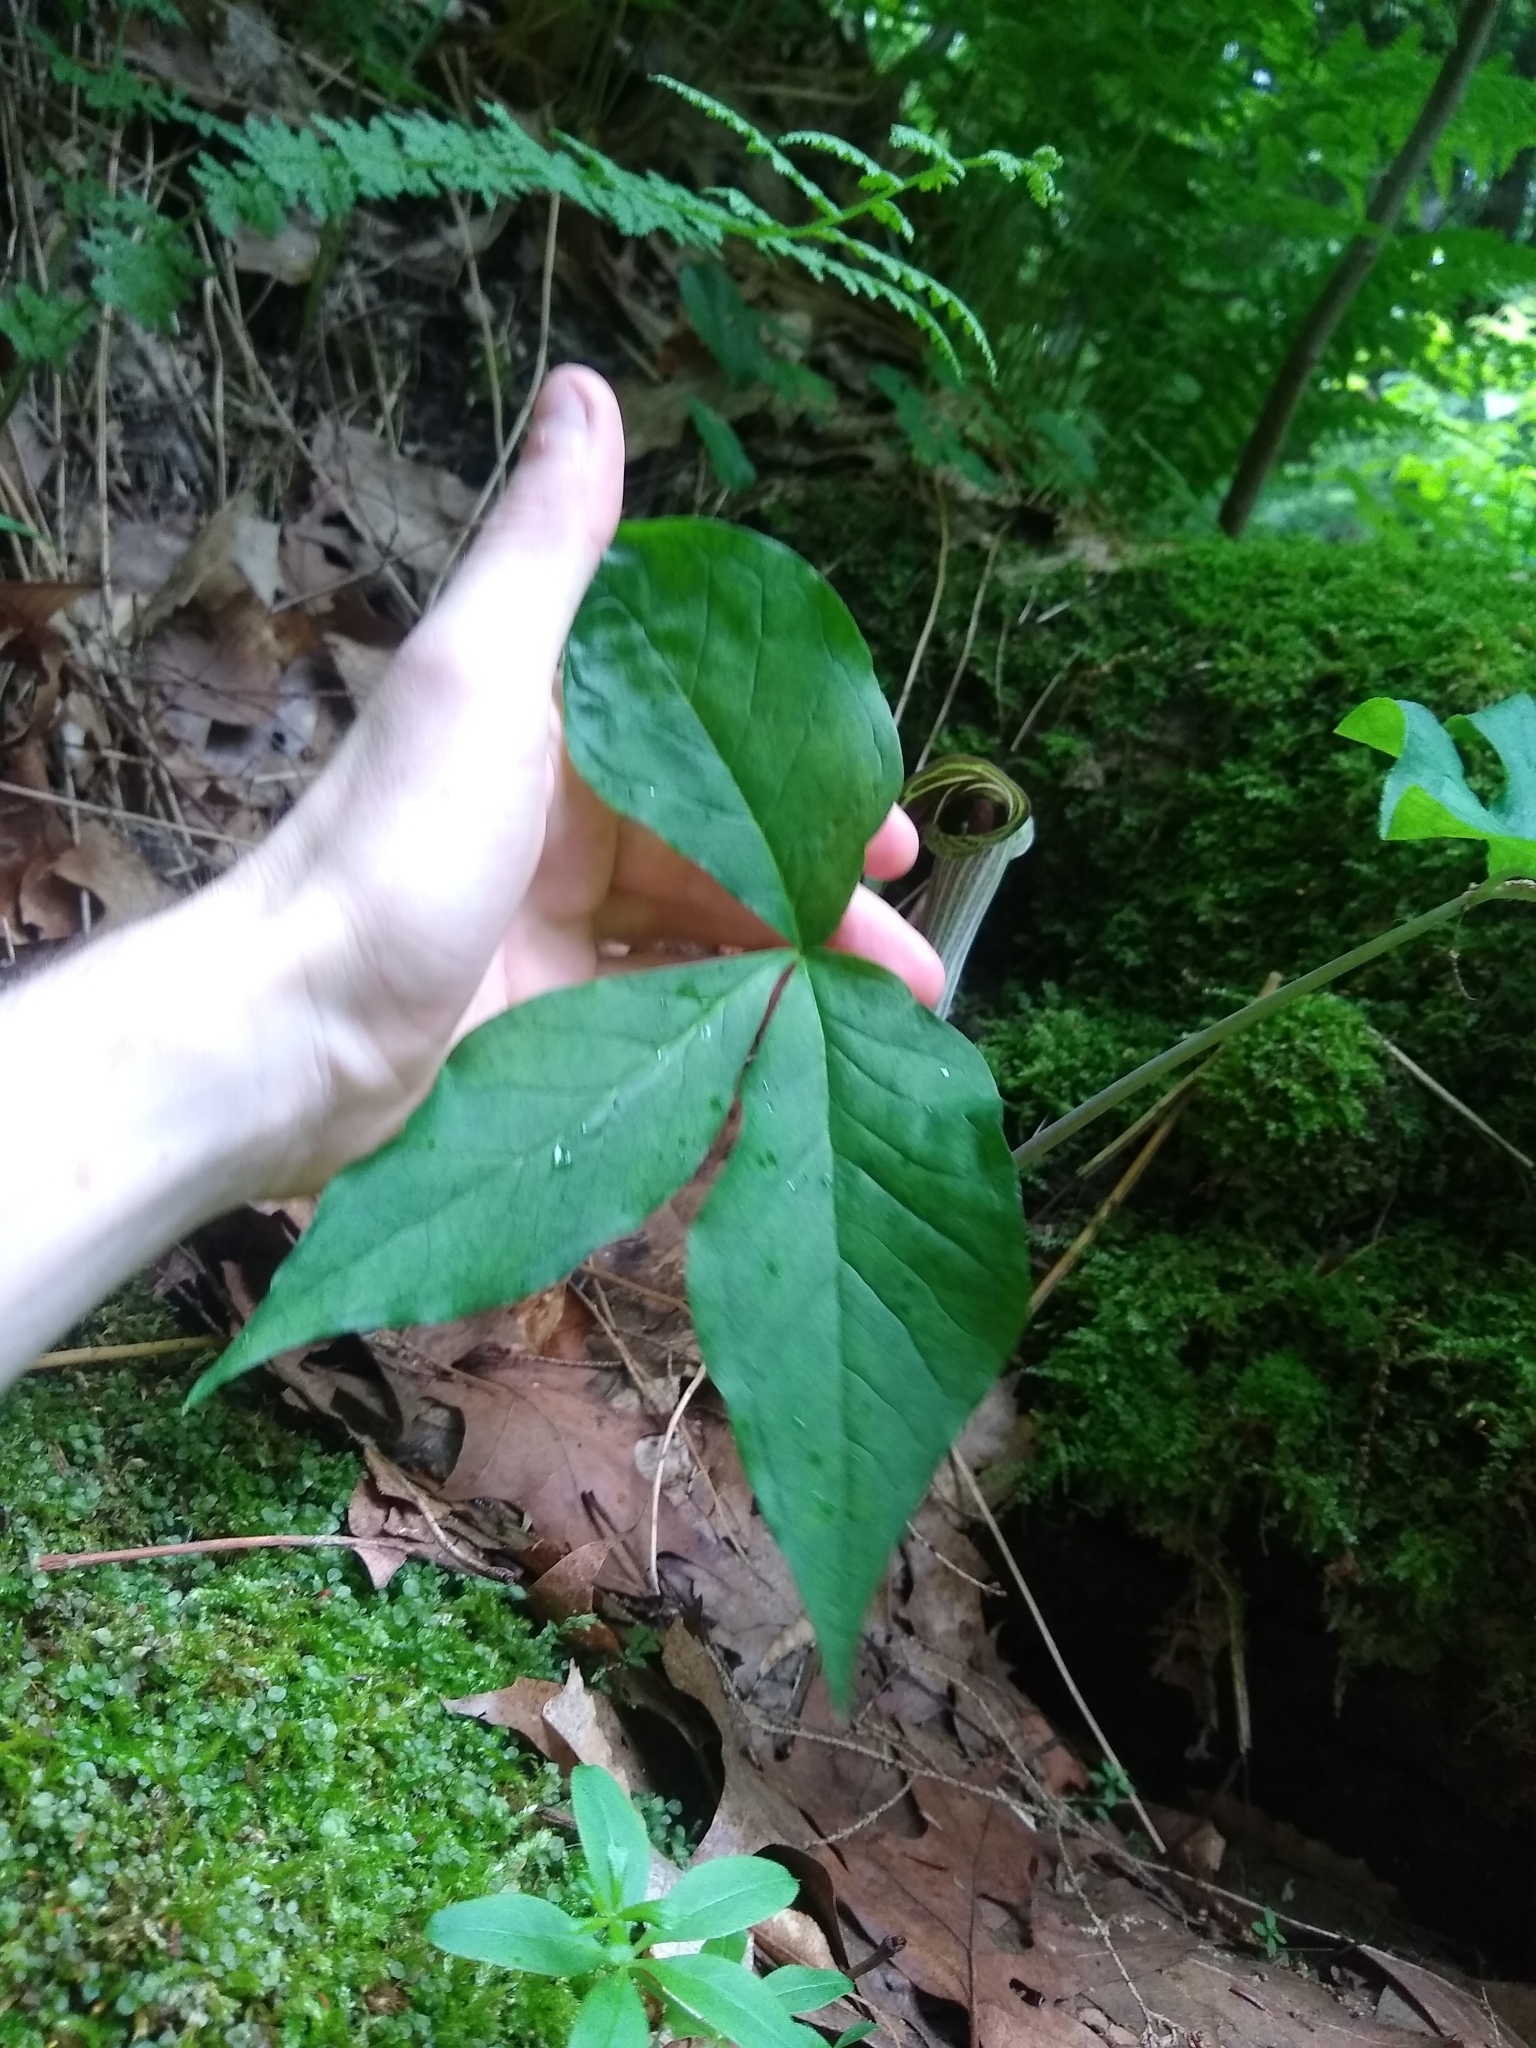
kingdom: Plantae
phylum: Tracheophyta
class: Liliopsida
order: Alismatales
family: Araceae
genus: Arisaema
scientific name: Arisaema triphyllum
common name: Jack-in-the-pulpit
